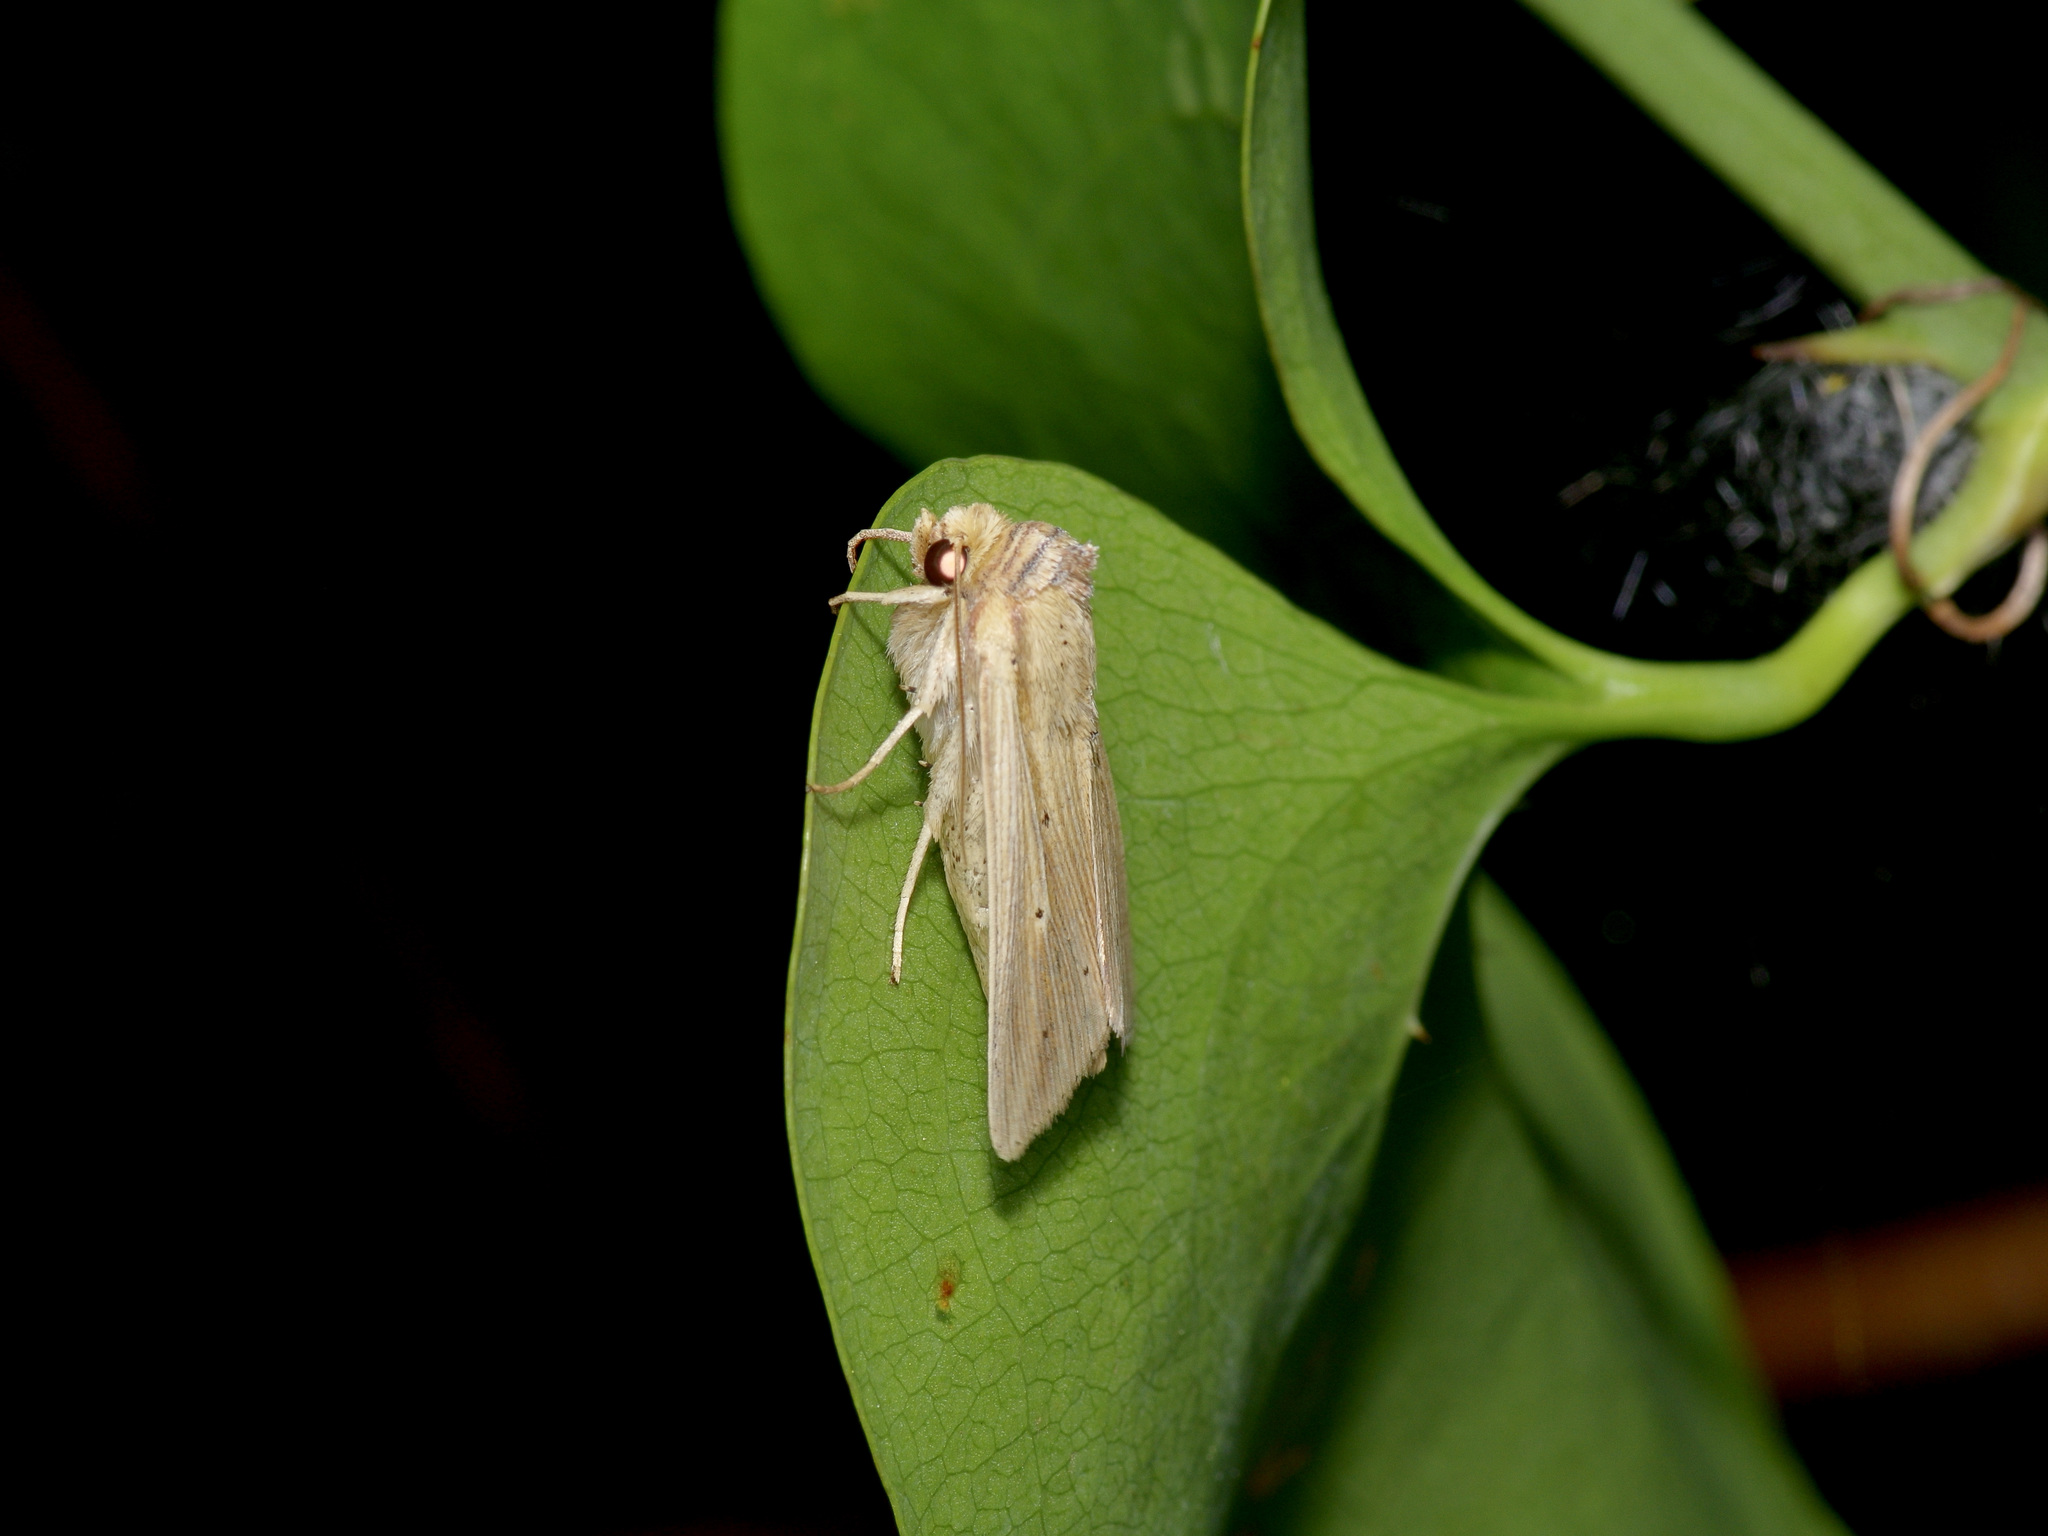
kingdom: Animalia
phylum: Arthropoda
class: Insecta
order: Lepidoptera
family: Noctuidae
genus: Leucania
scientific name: Leucania adjuta
